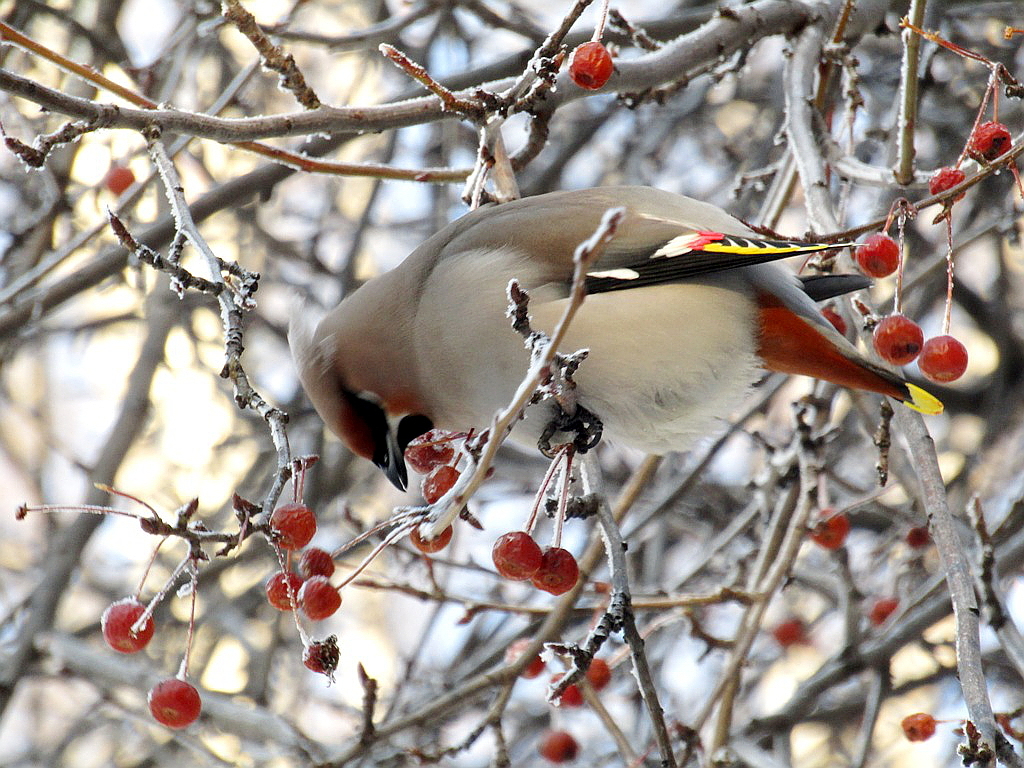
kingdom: Animalia
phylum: Chordata
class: Aves
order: Passeriformes
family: Bombycillidae
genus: Bombycilla
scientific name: Bombycilla garrulus
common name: Bohemian waxwing
